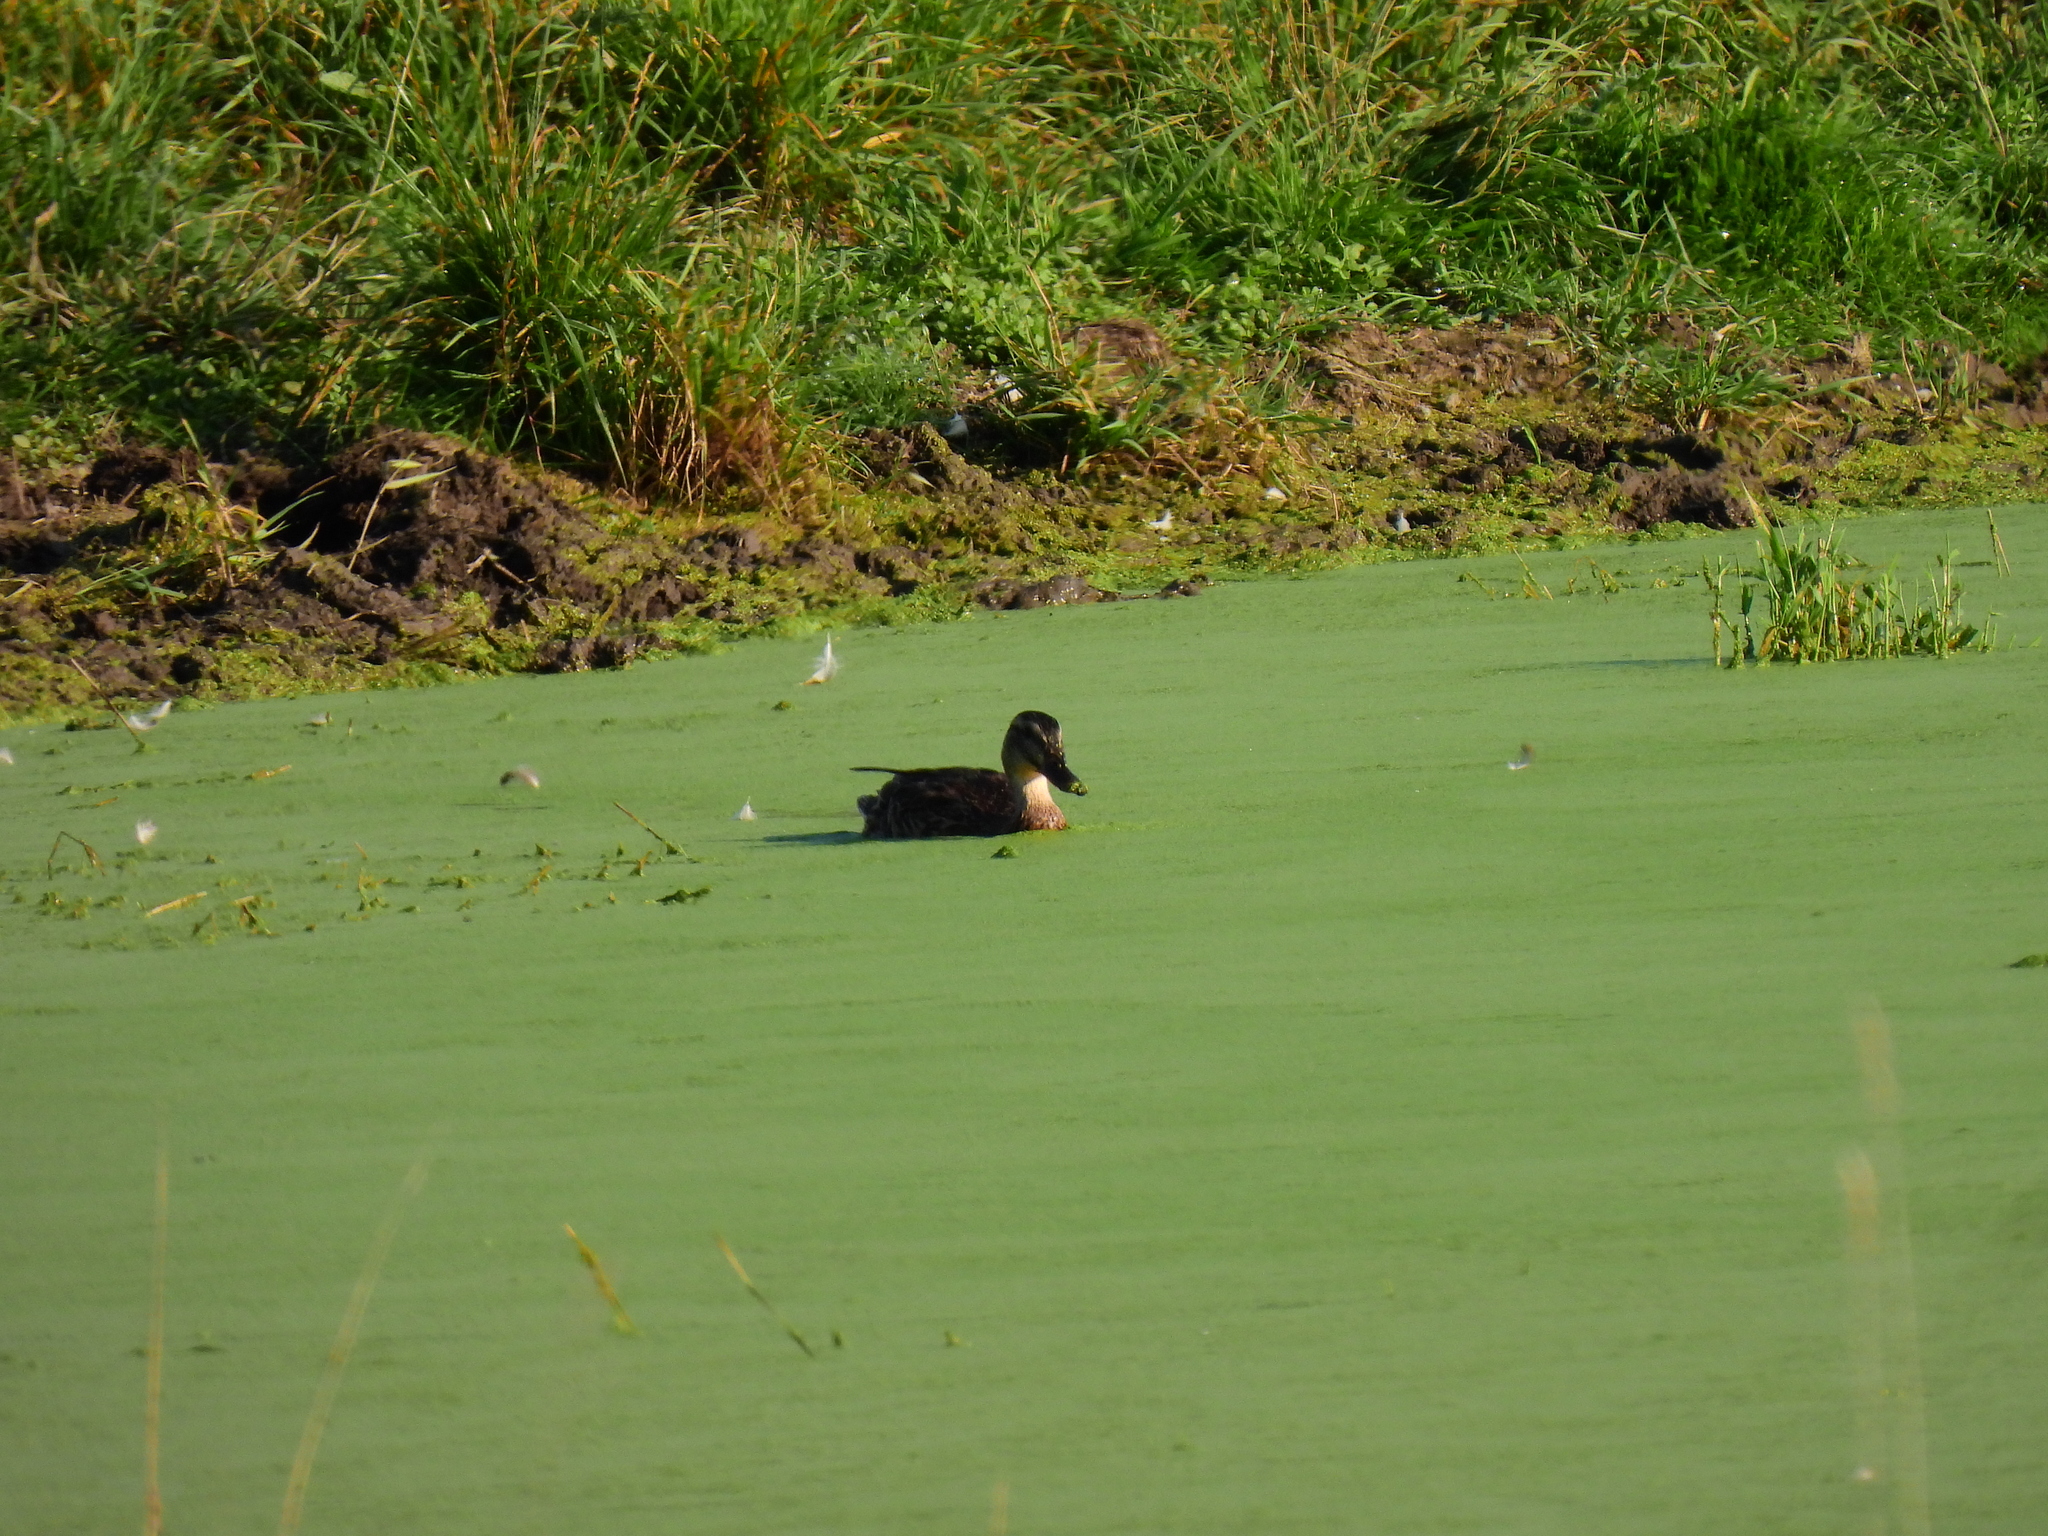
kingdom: Animalia
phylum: Chordata
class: Aves
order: Anseriformes
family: Anatidae
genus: Anas
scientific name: Anas platyrhynchos
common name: Mallard
